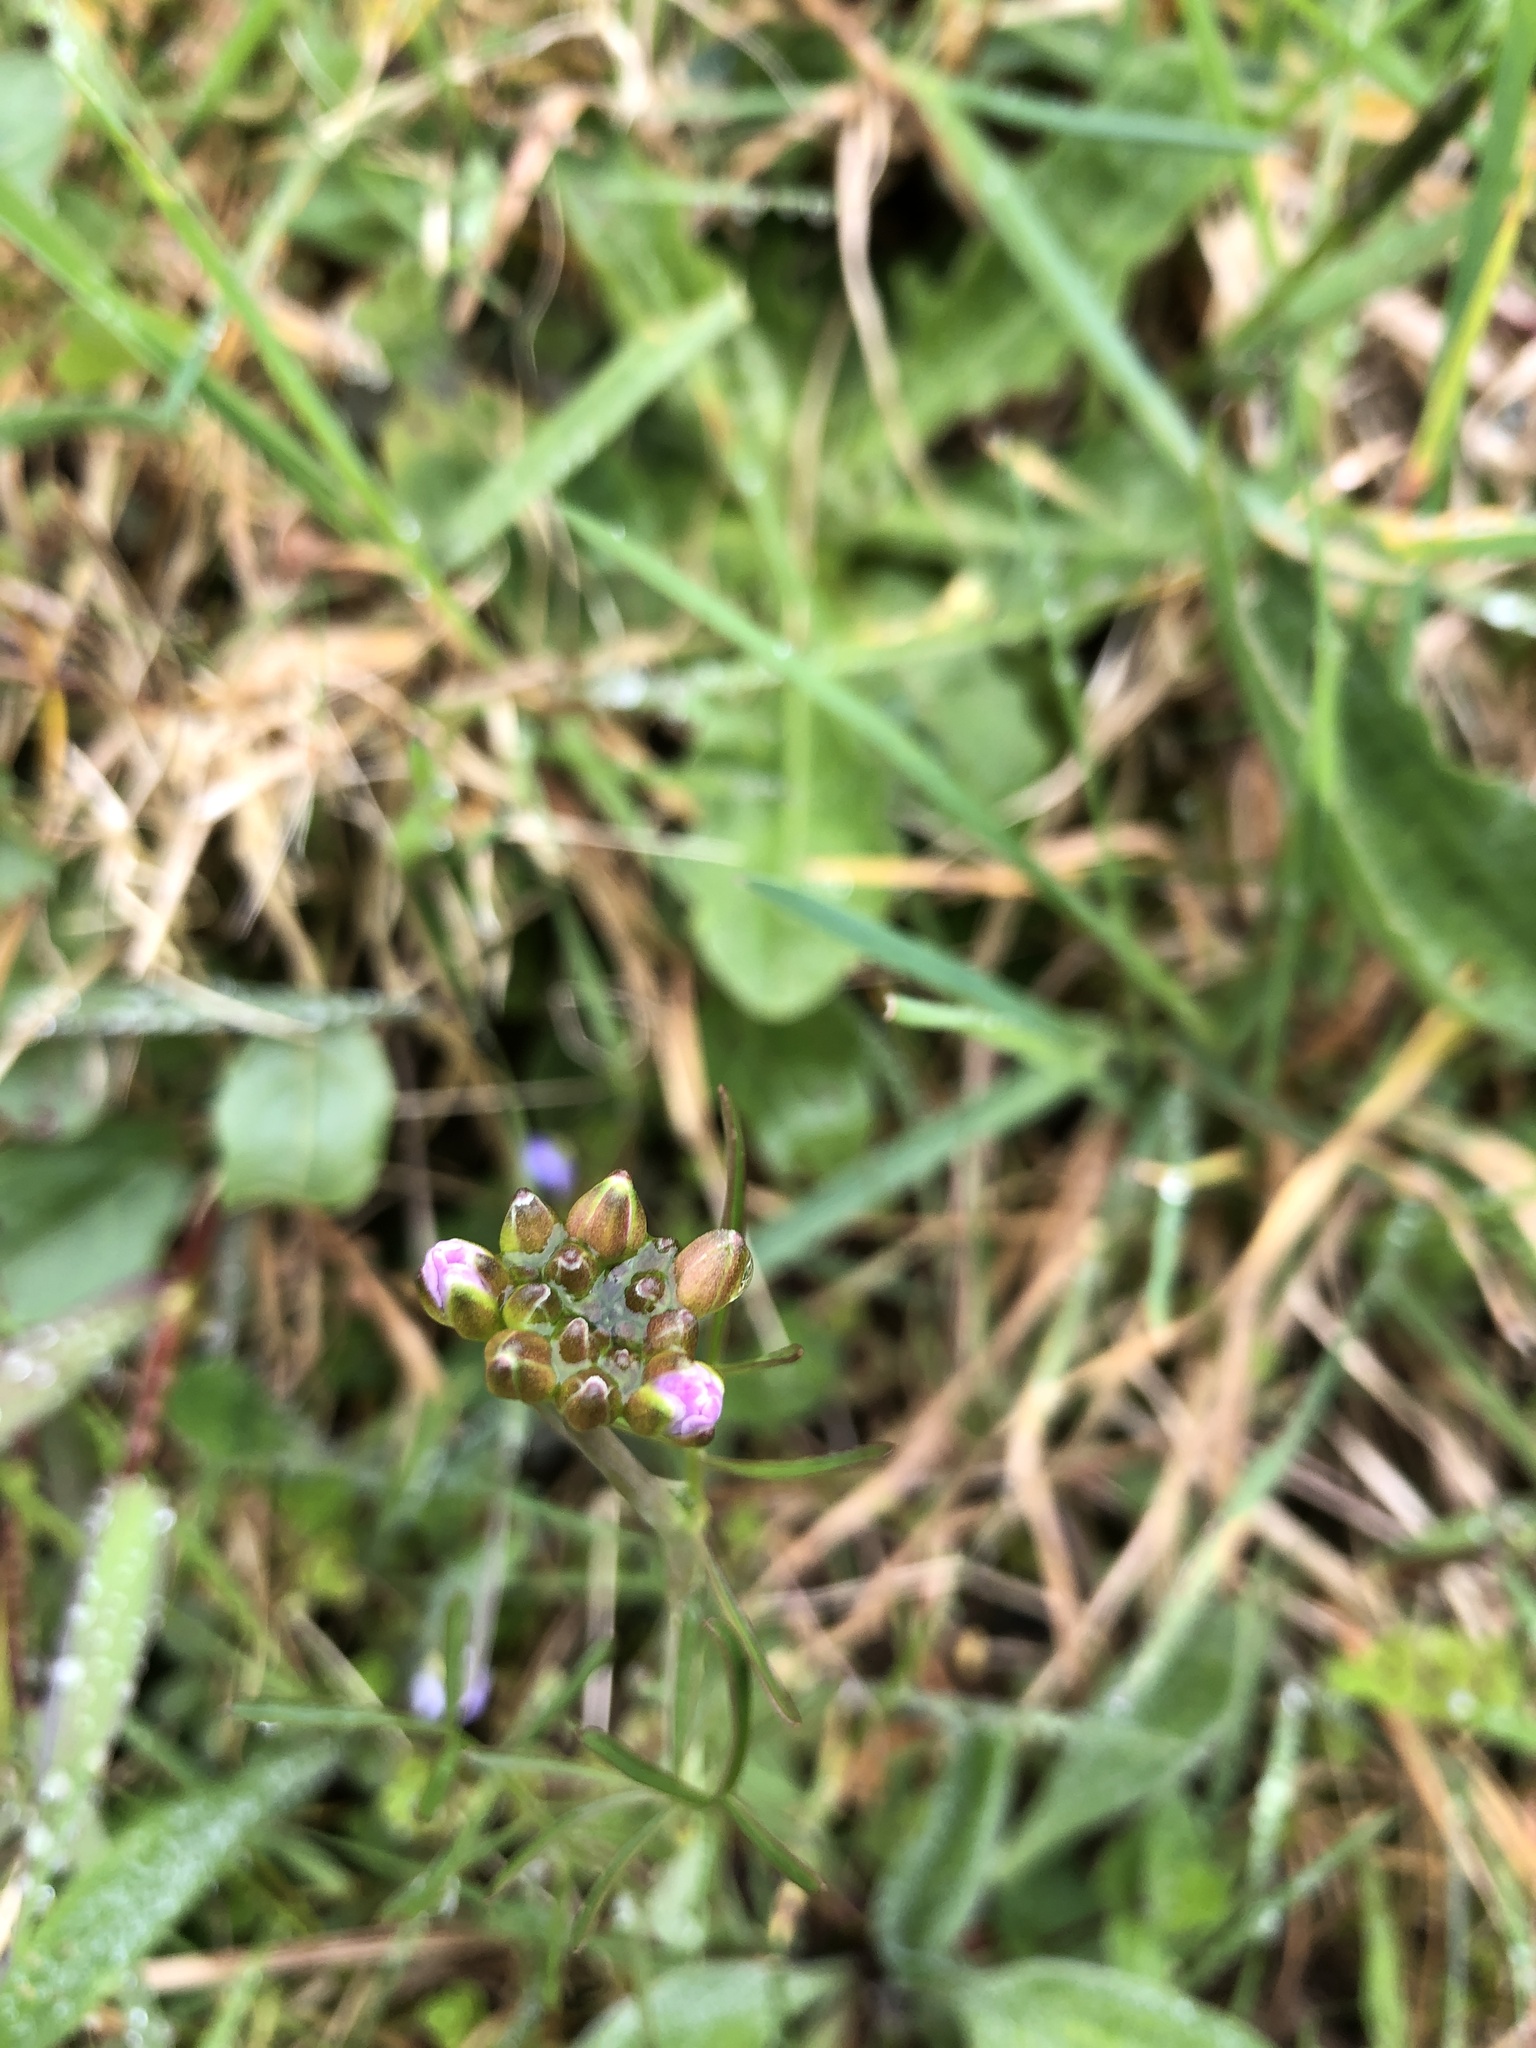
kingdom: Plantae
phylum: Tracheophyta
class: Magnoliopsida
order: Brassicales
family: Brassicaceae
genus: Cardamine
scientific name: Cardamine pratensis
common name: Cuckoo flower
